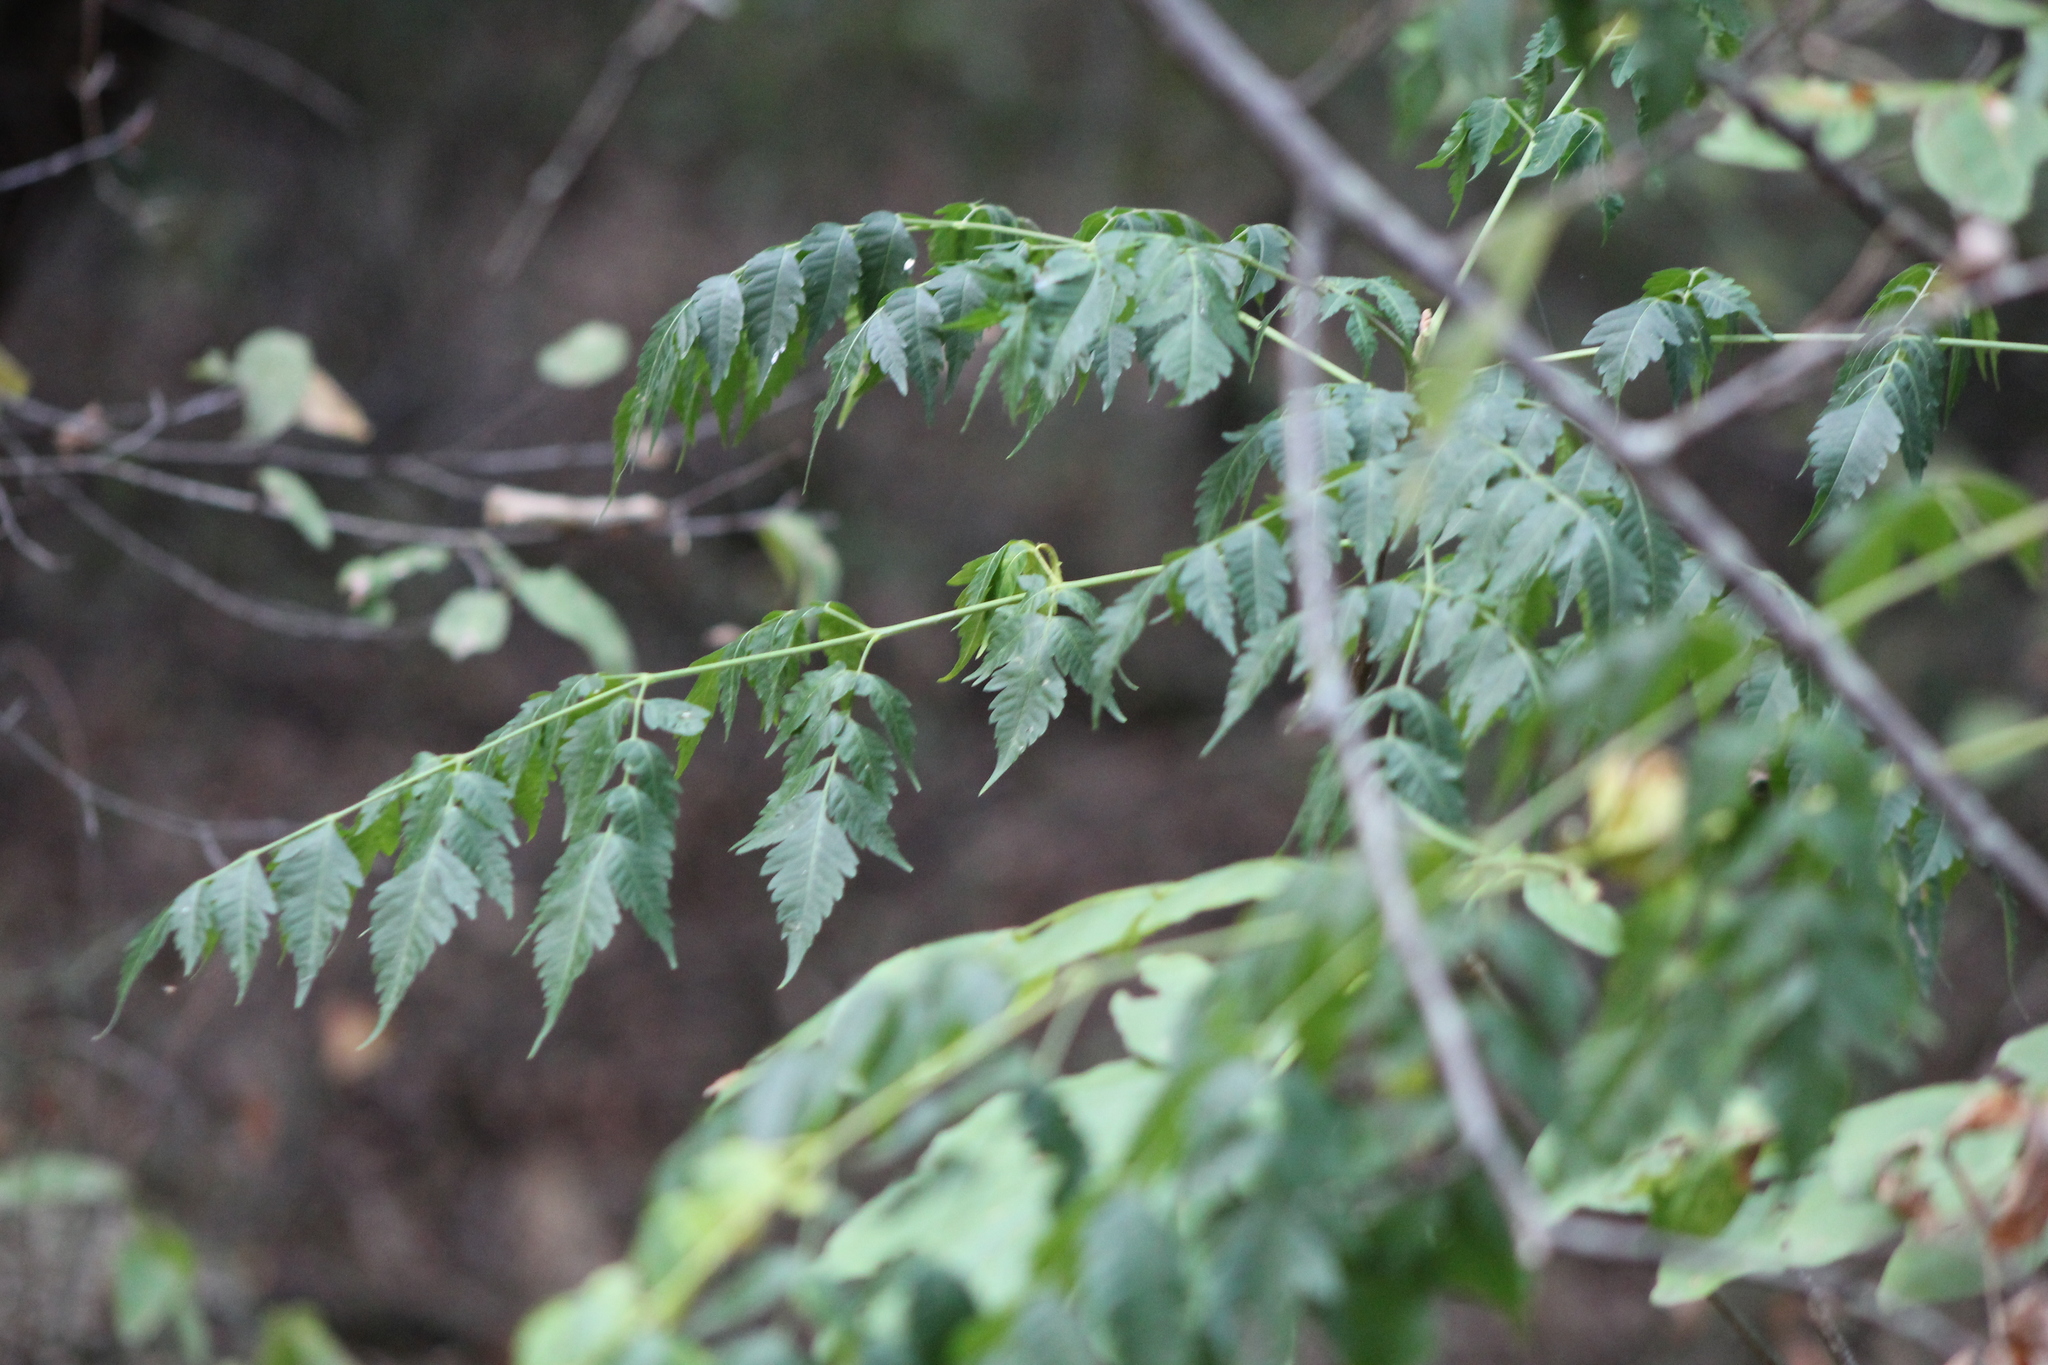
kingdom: Plantae
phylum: Tracheophyta
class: Magnoliopsida
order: Sapindales
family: Meliaceae
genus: Melia
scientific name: Melia azedarach
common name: Chinaberrytree
